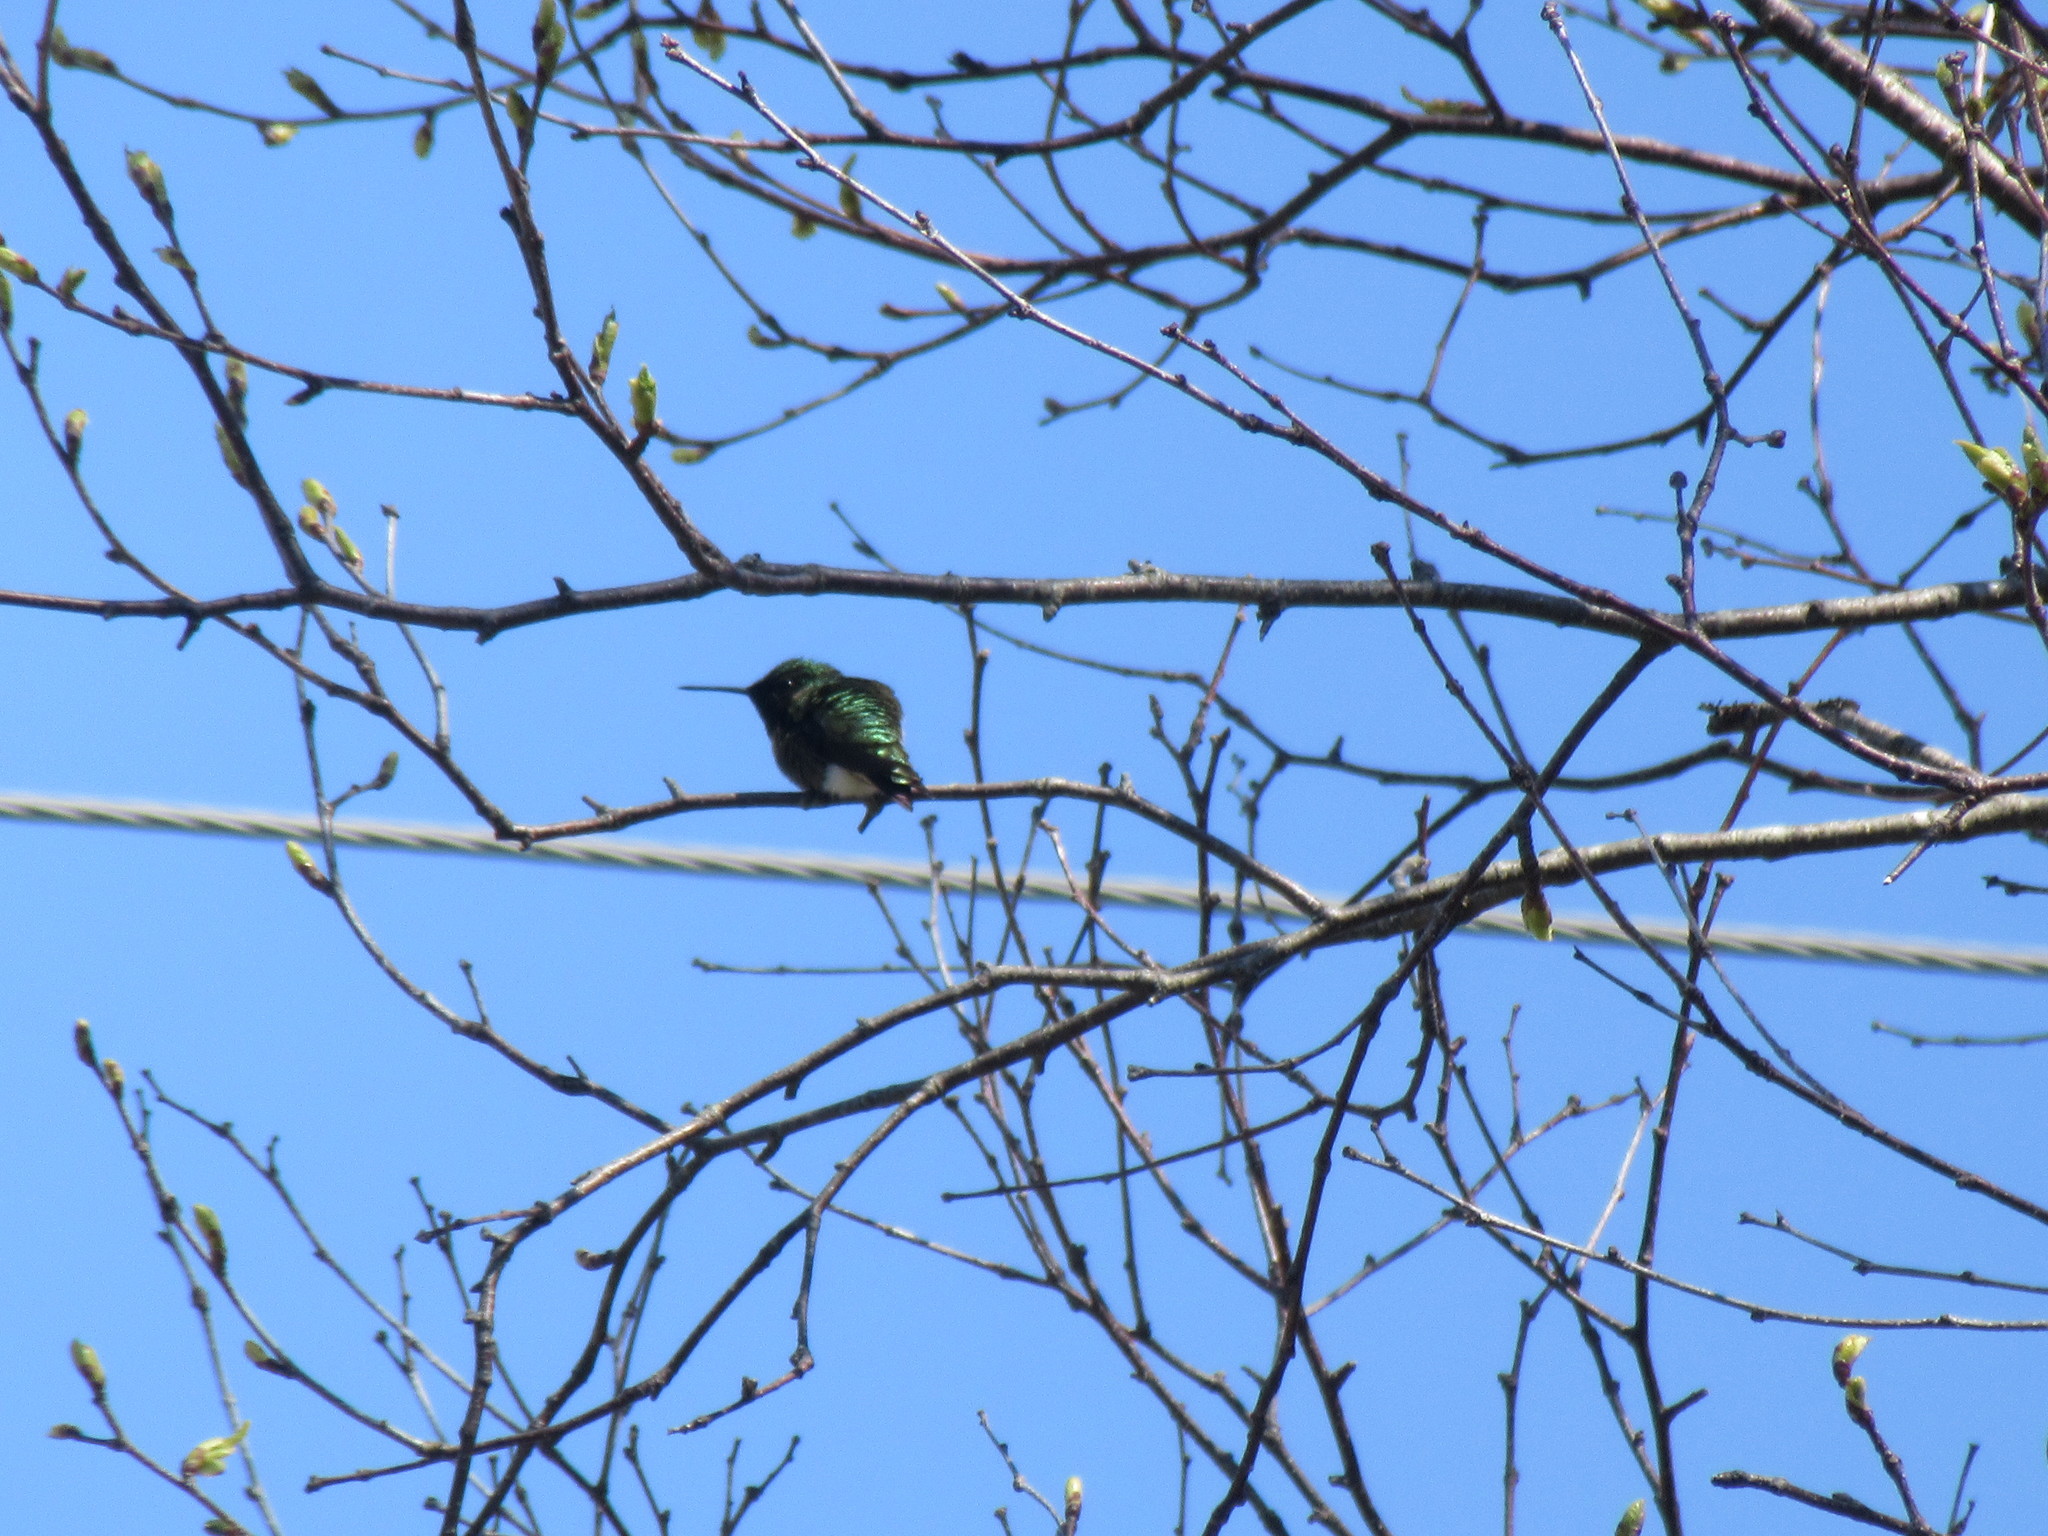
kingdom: Animalia
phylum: Chordata
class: Aves
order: Apodiformes
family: Trochilidae
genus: Archilochus
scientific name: Archilochus colubris
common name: Ruby-throated hummingbird
